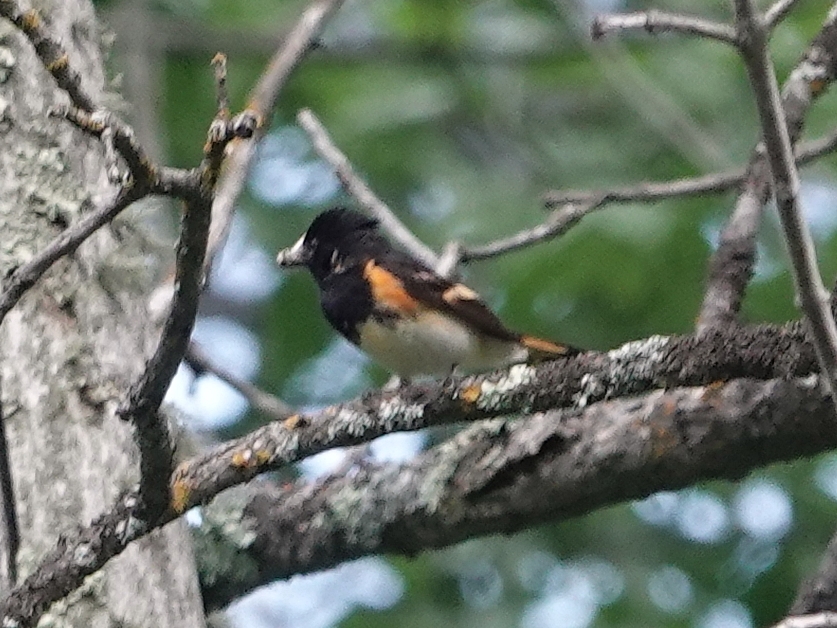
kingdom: Animalia
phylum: Chordata
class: Aves
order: Passeriformes
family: Parulidae
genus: Setophaga
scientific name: Setophaga ruticilla
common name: American redstart
